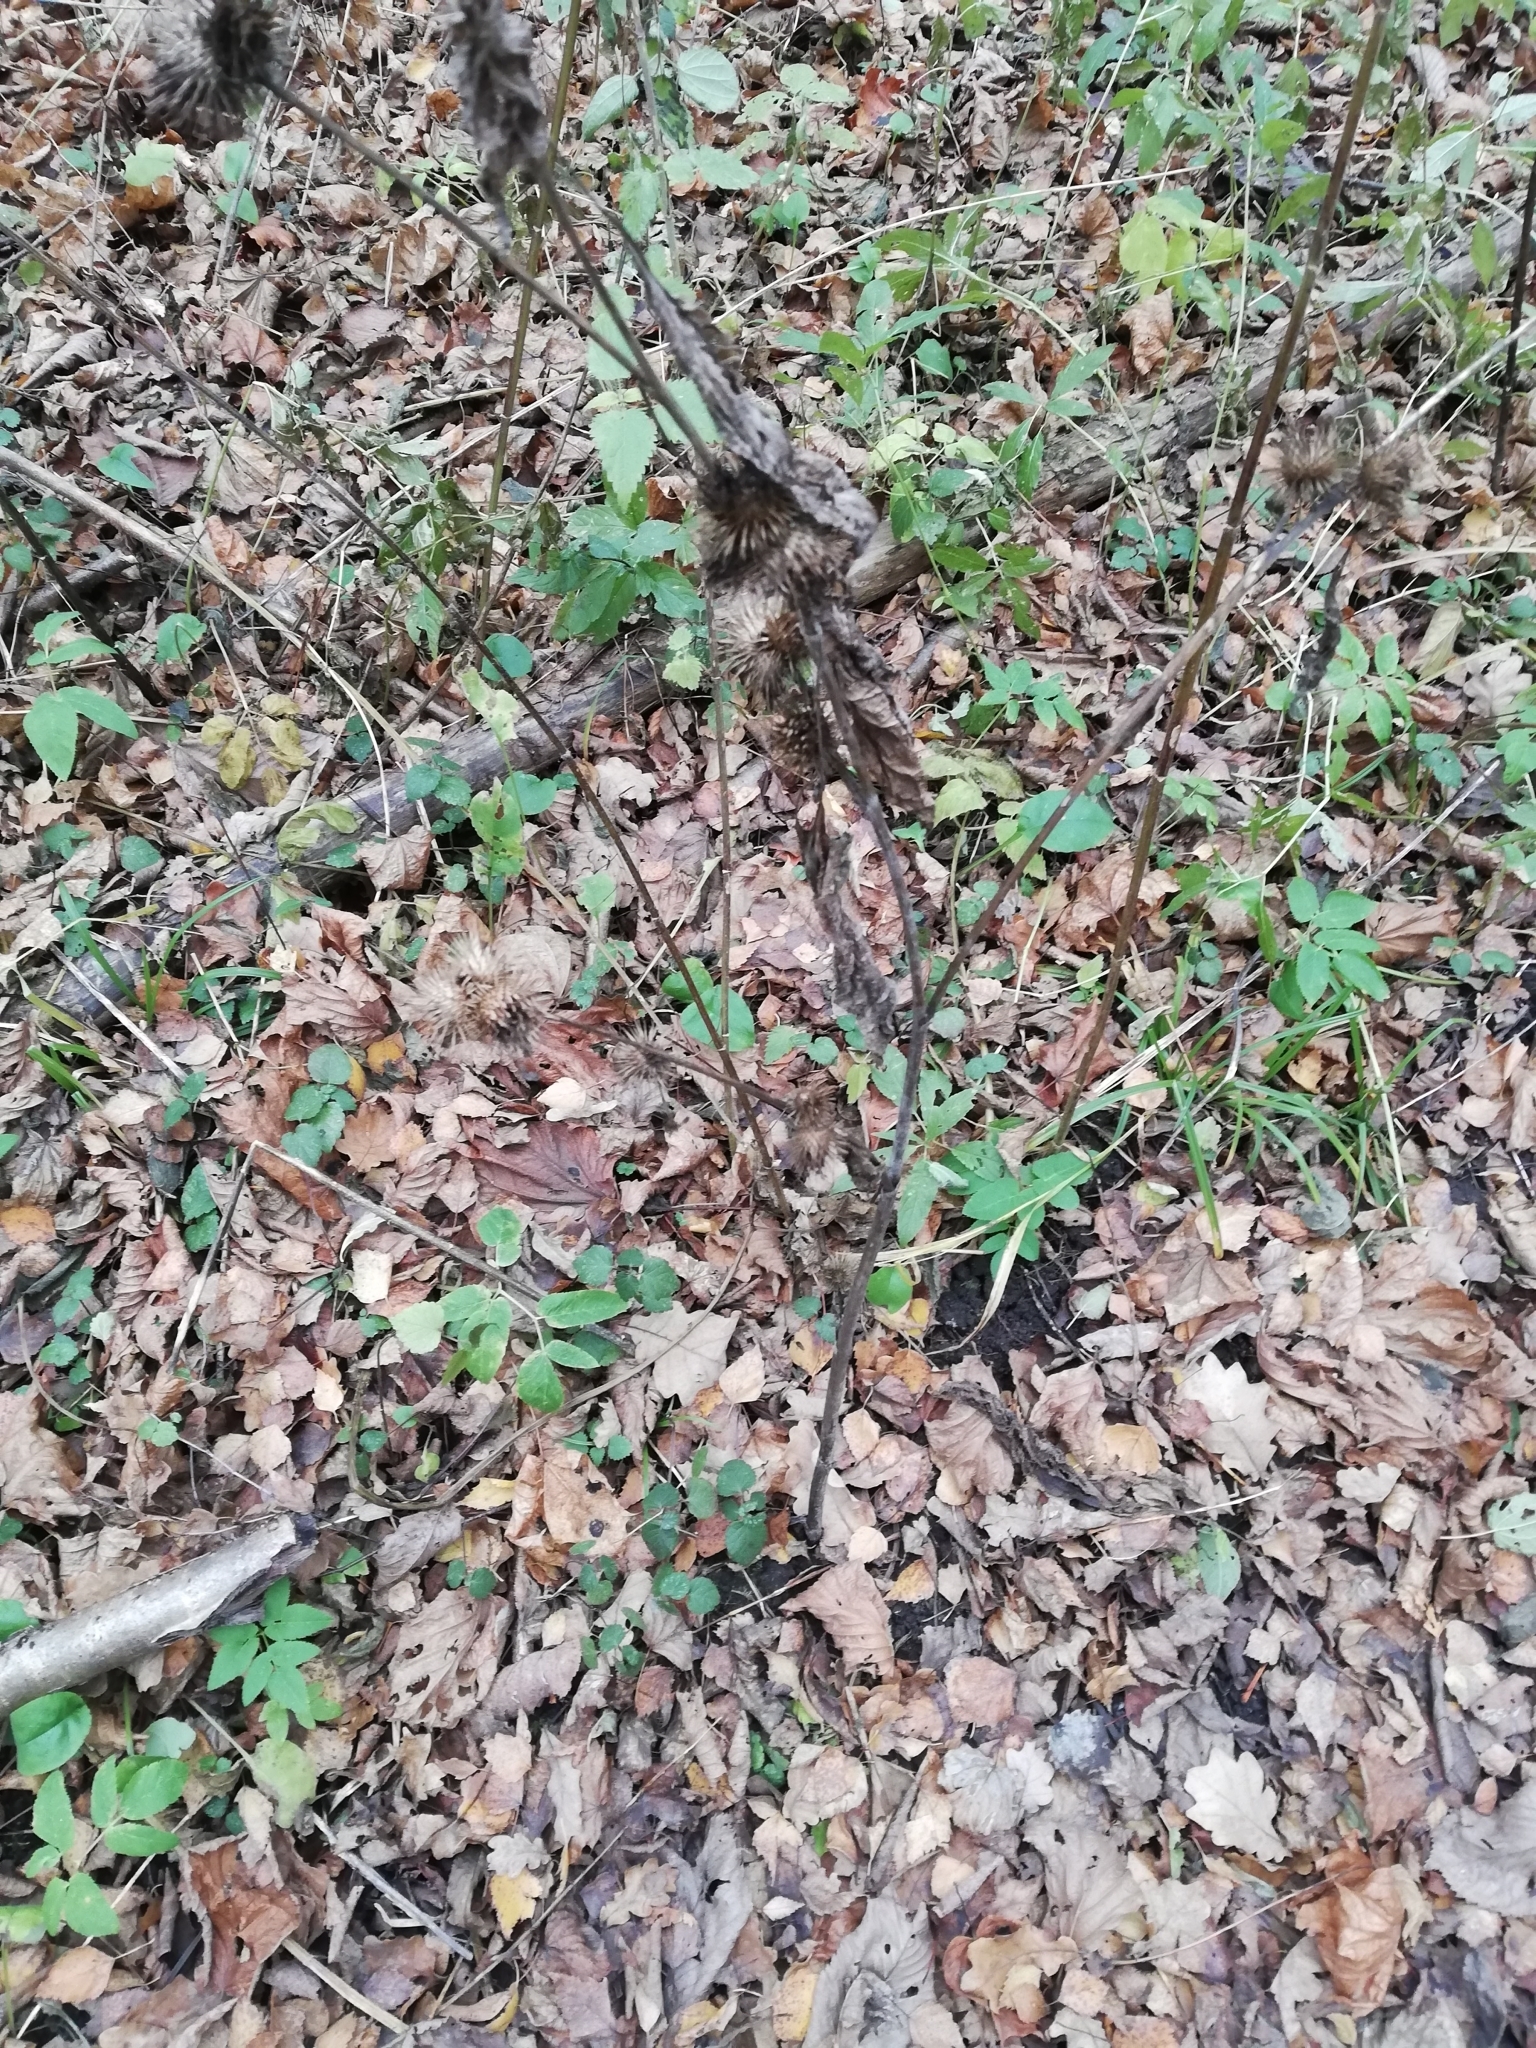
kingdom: Plantae
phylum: Tracheophyta
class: Magnoliopsida
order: Asterales
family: Asteraceae
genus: Arctium
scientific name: Arctium minus
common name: Lesser burdock
